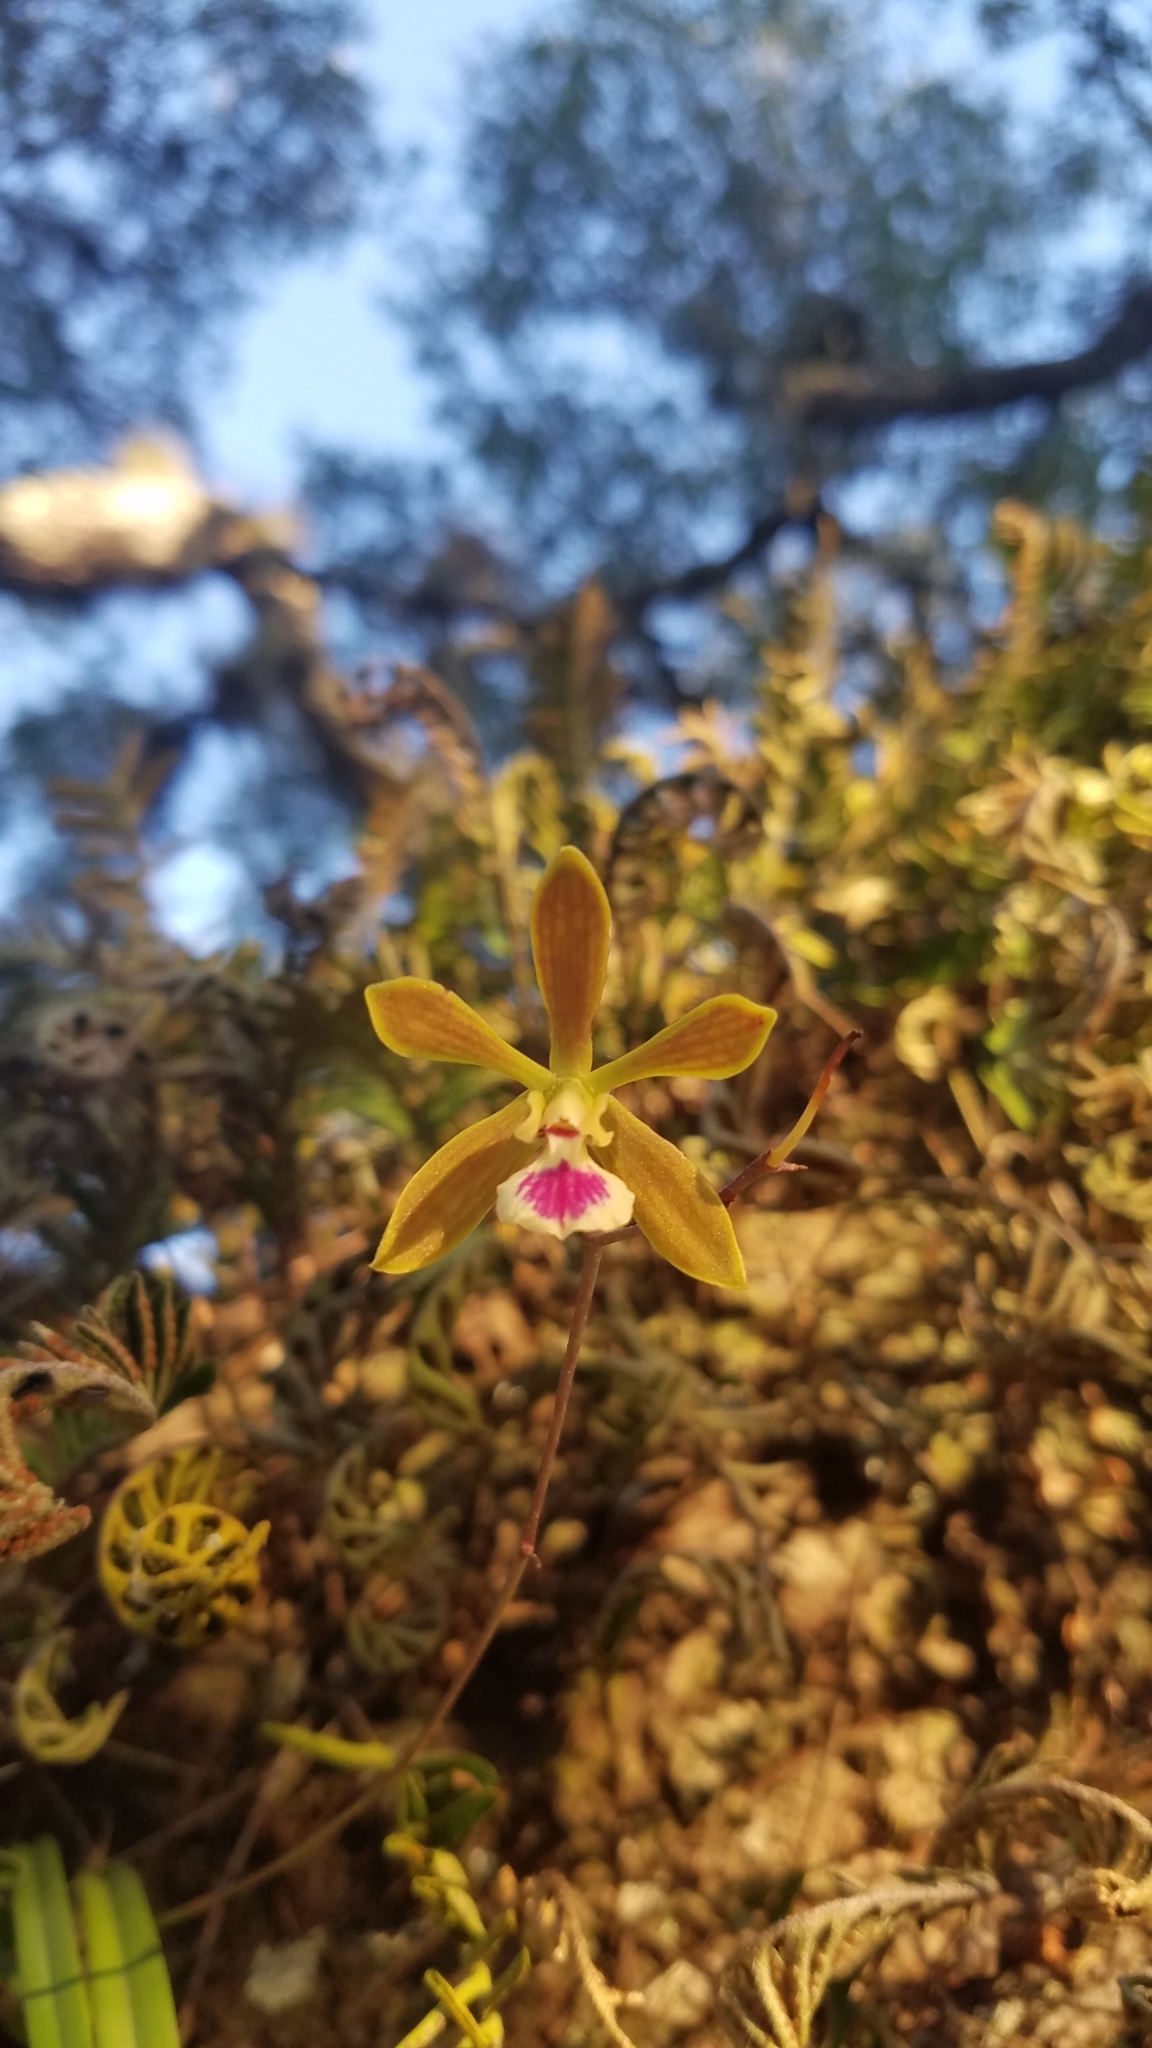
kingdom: Plantae
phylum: Tracheophyta
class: Liliopsida
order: Asparagales
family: Orchidaceae
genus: Encyclia
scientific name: Encyclia tampensis
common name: Florida butterfly orchid
